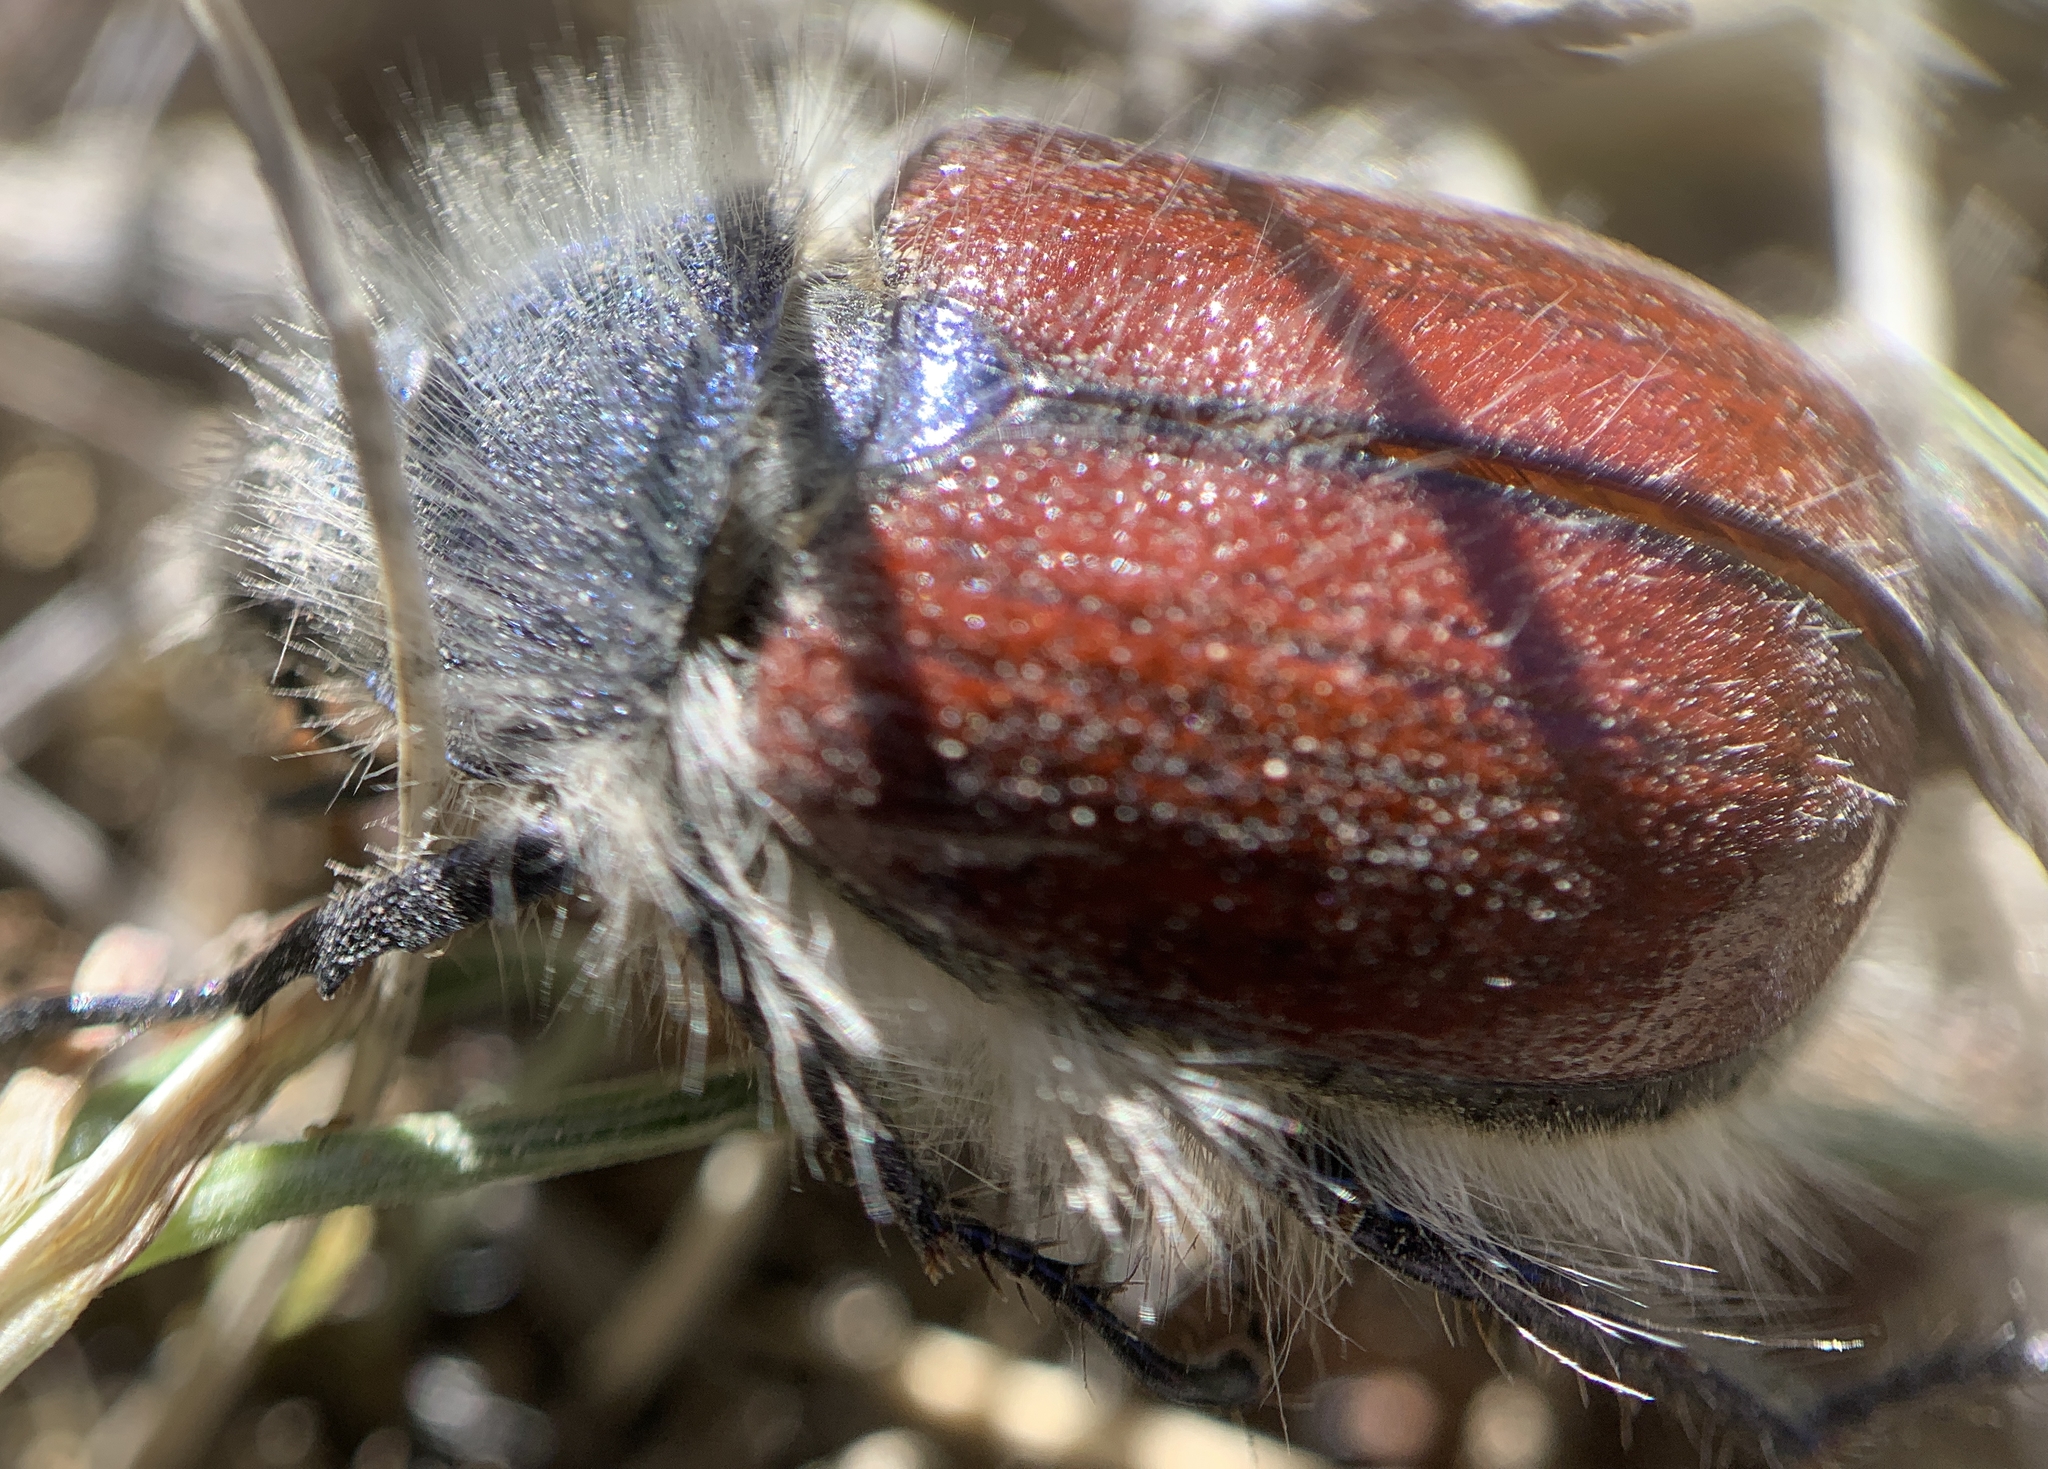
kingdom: Animalia
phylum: Arthropoda
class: Insecta
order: Coleoptera
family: Scarabaeidae
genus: Paracotalpa
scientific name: Paracotalpa granicollis
